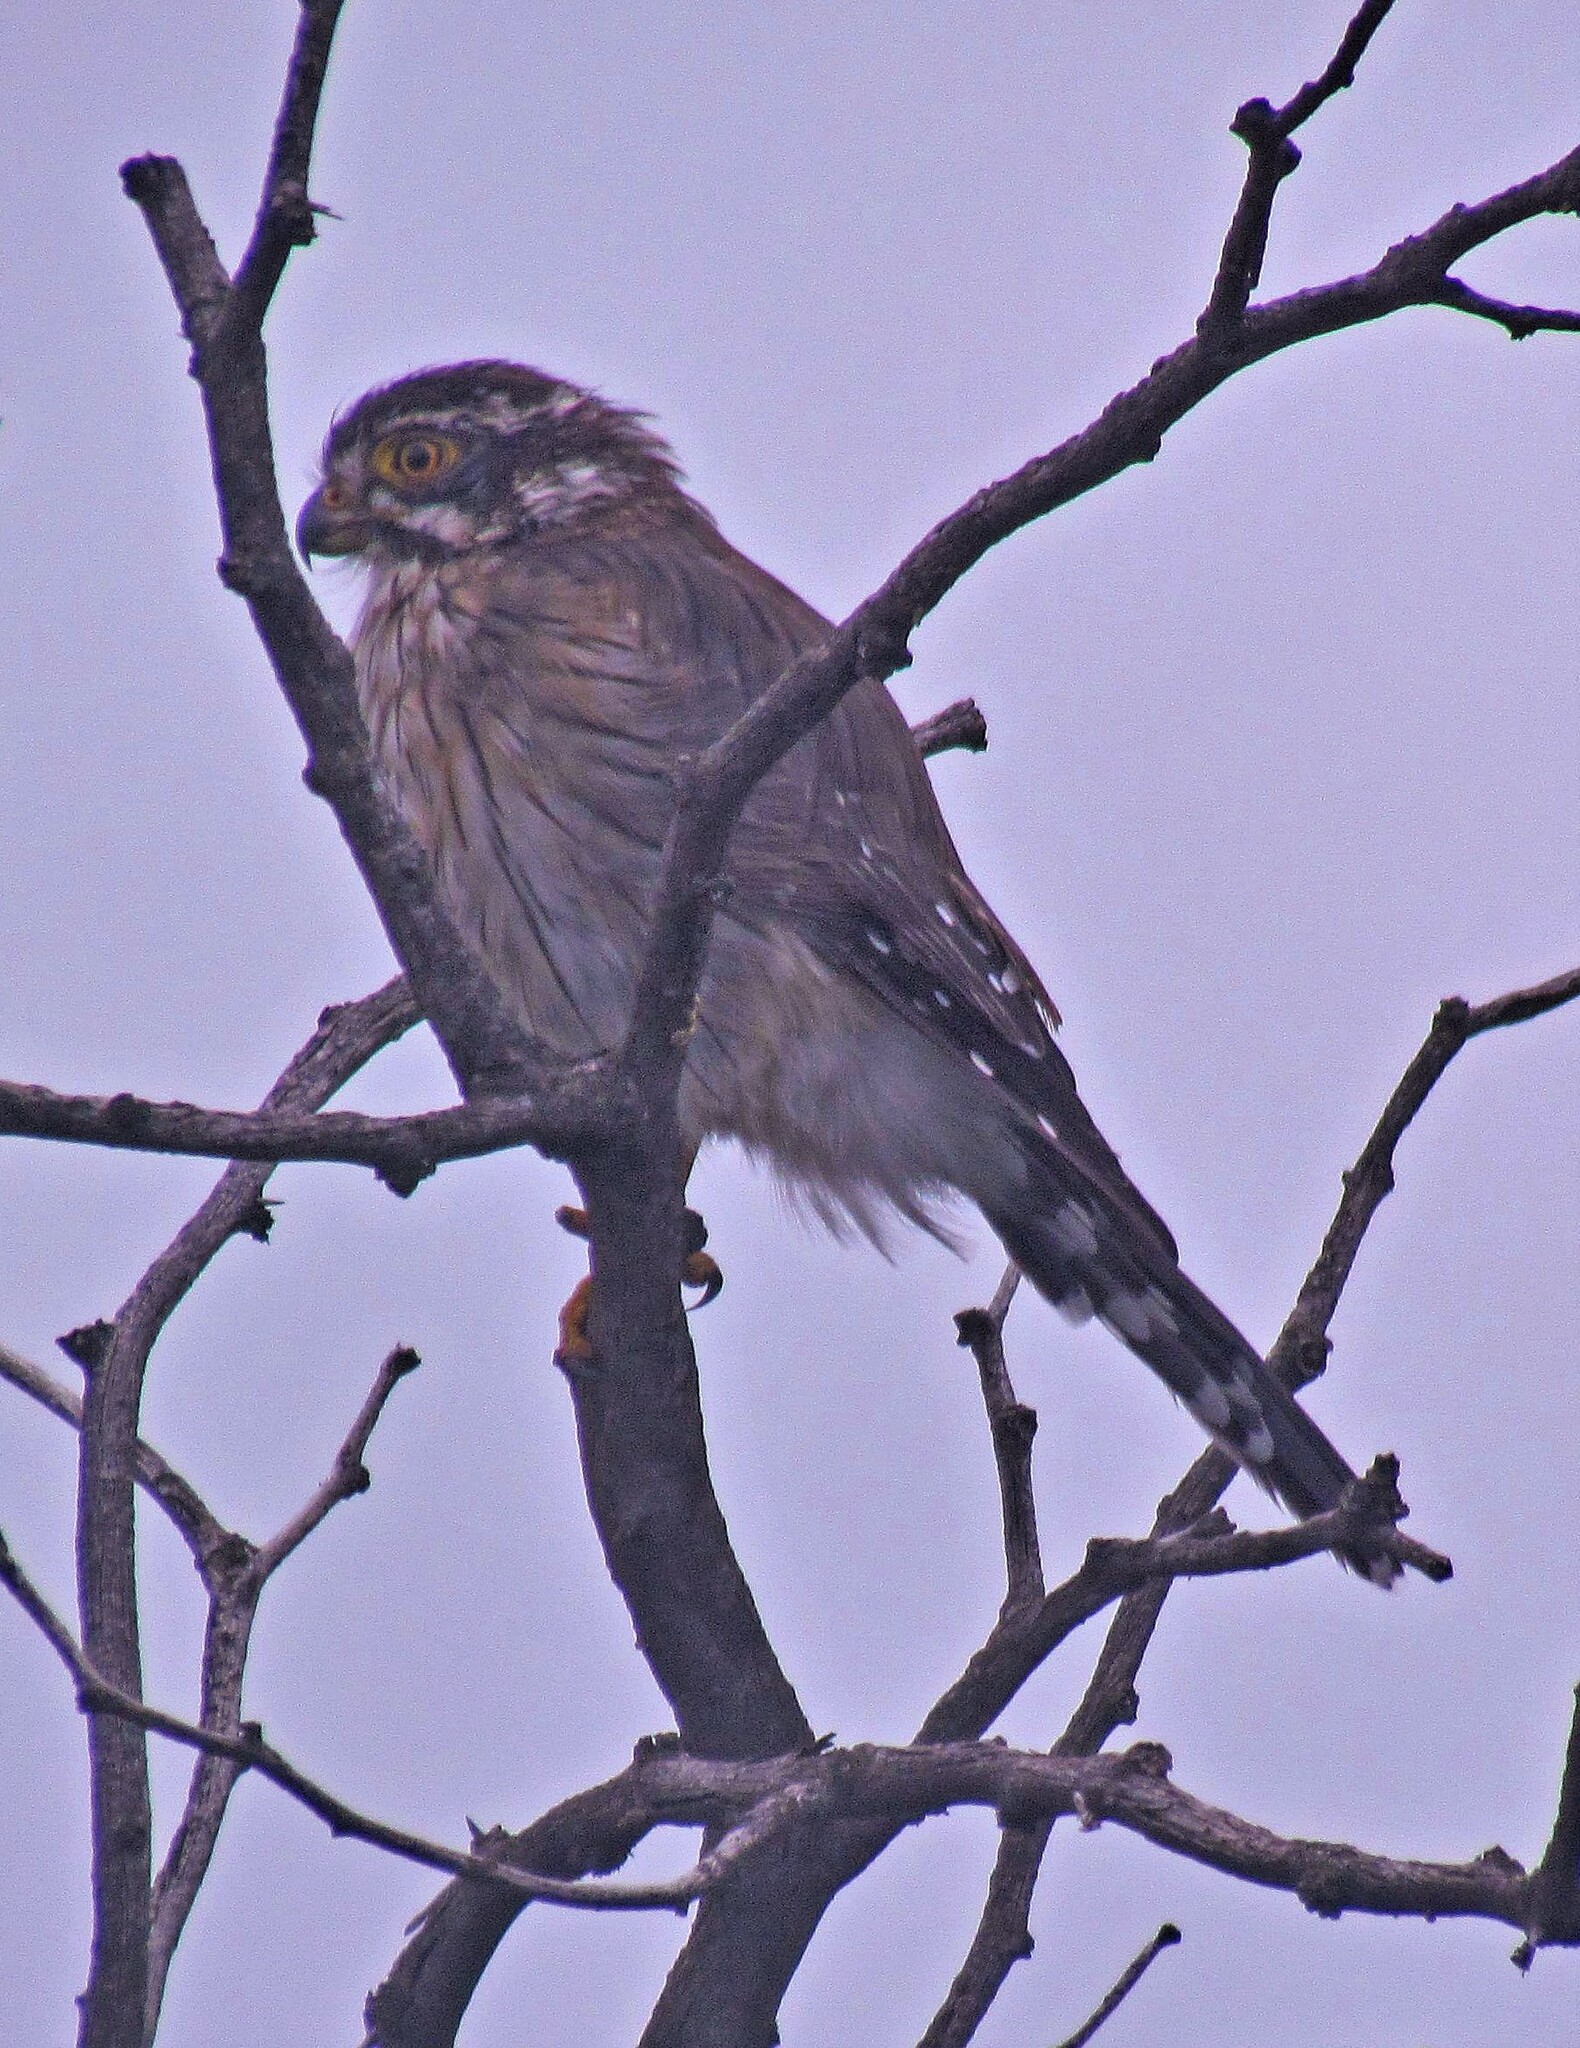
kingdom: Animalia
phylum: Chordata
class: Aves
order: Falconiformes
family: Falconidae
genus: Spiziapteryx
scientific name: Spiziapteryx circumcincta
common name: Spot-winged falconet
